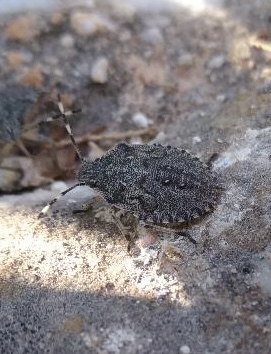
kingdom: Animalia
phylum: Arthropoda
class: Insecta
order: Hemiptera
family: Pentatomidae
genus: Rhaphigaster
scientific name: Rhaphigaster nebulosa
